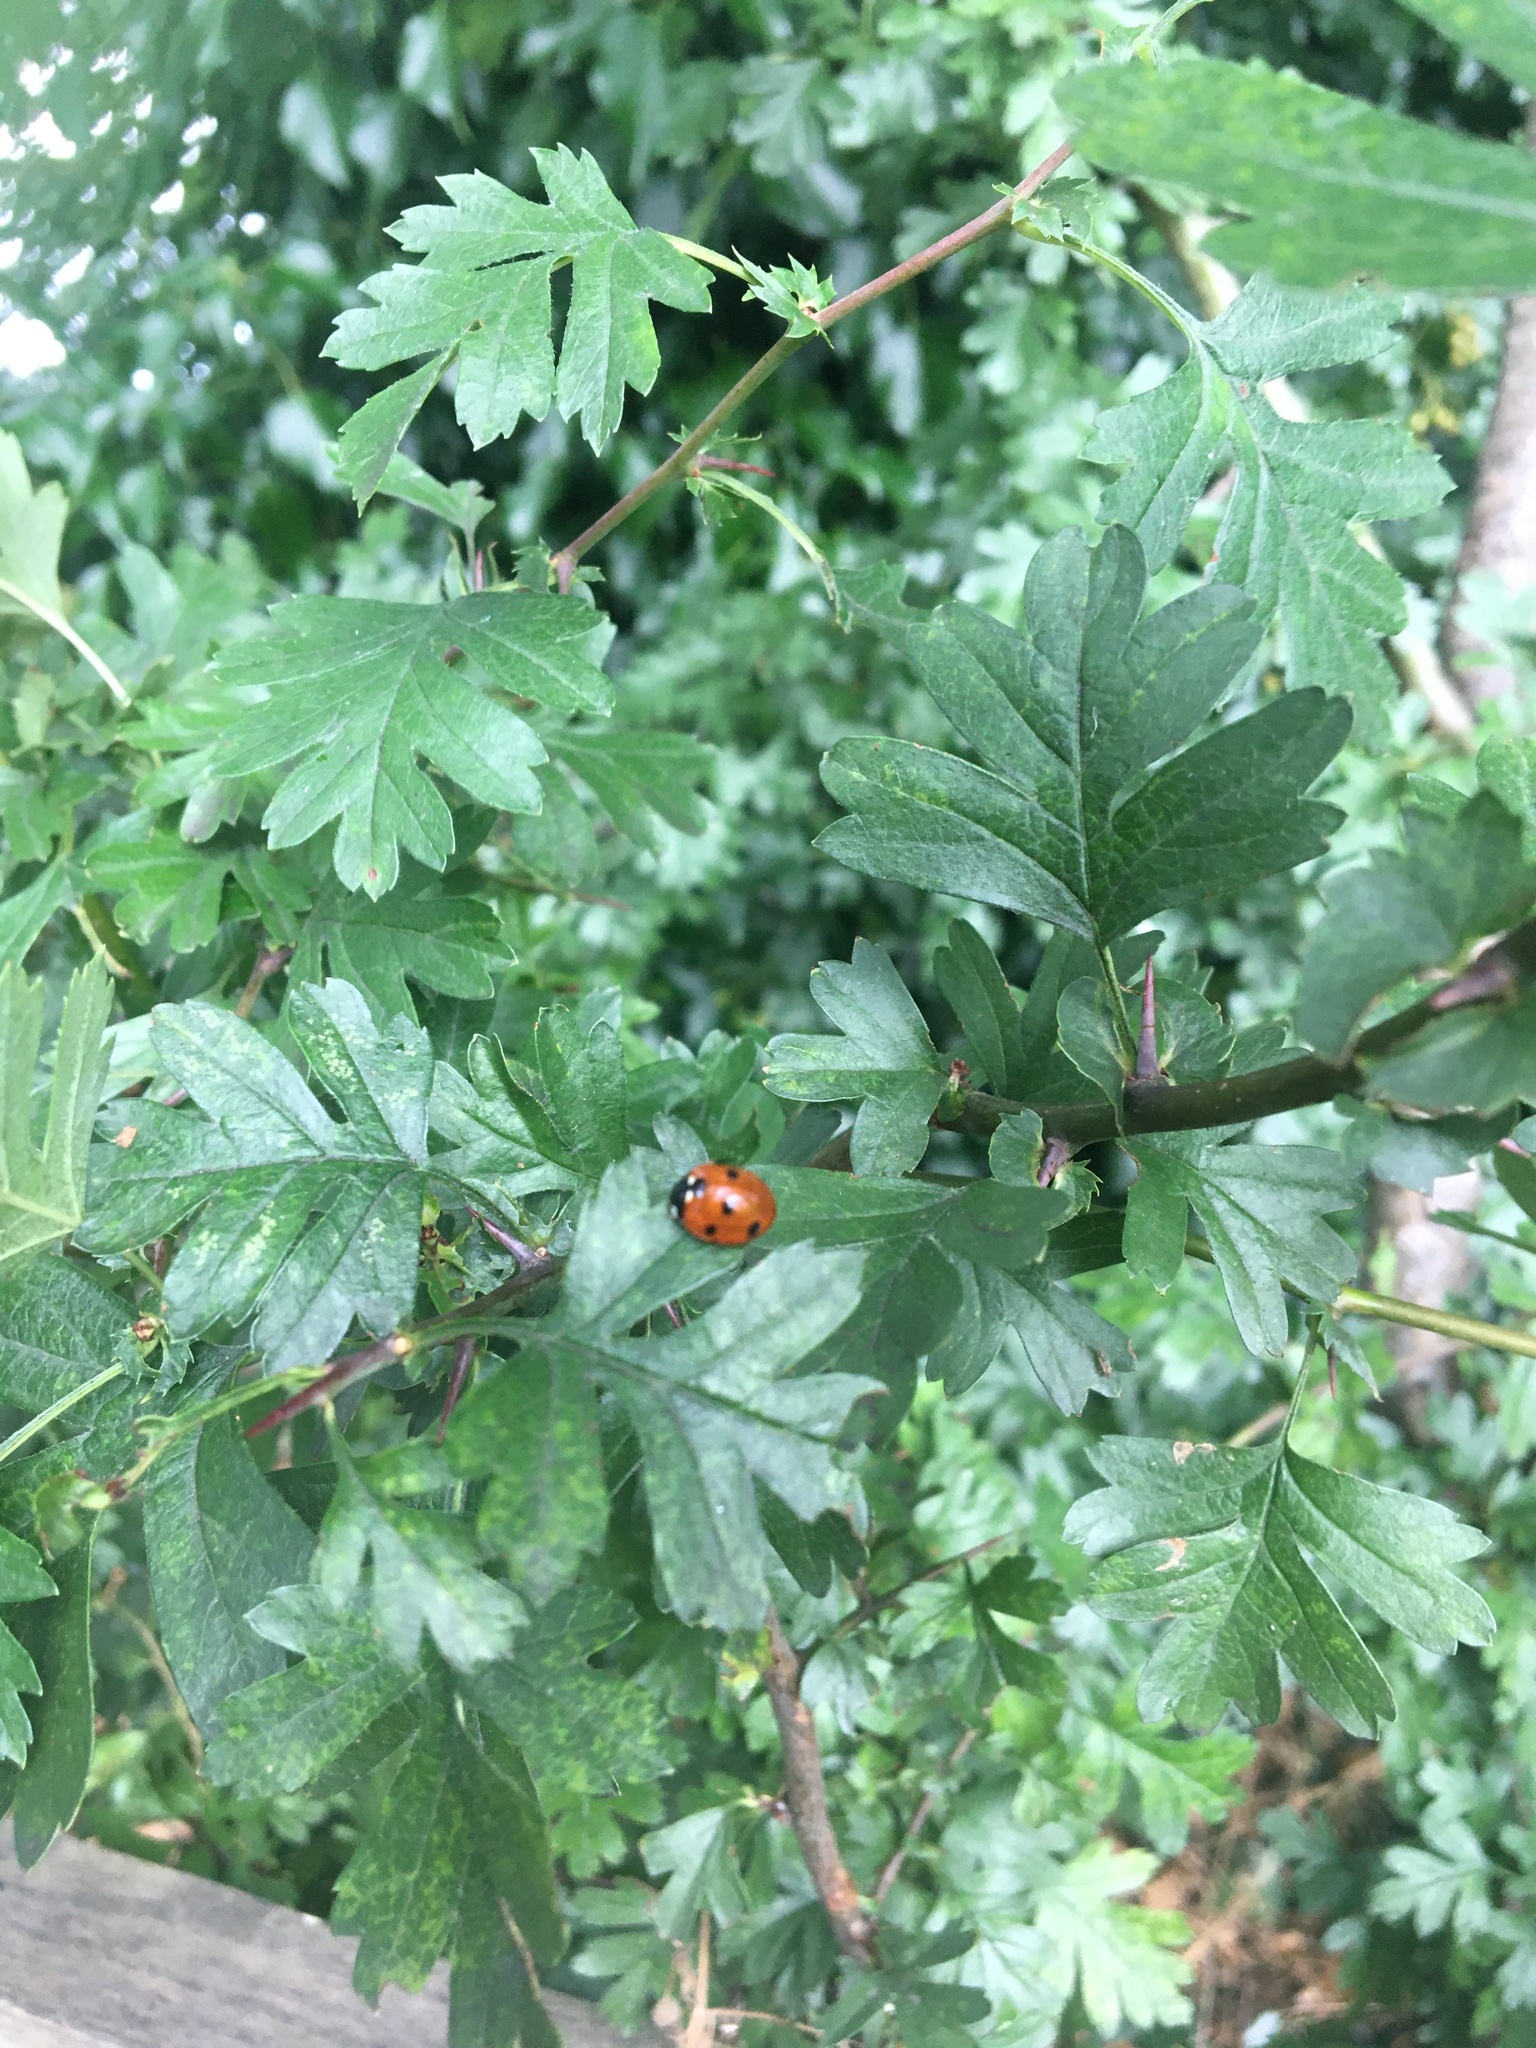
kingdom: Animalia
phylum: Arthropoda
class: Insecta
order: Coleoptera
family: Coccinellidae
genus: Coccinella
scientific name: Coccinella septempunctata
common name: Sevenspotted lady beetle
